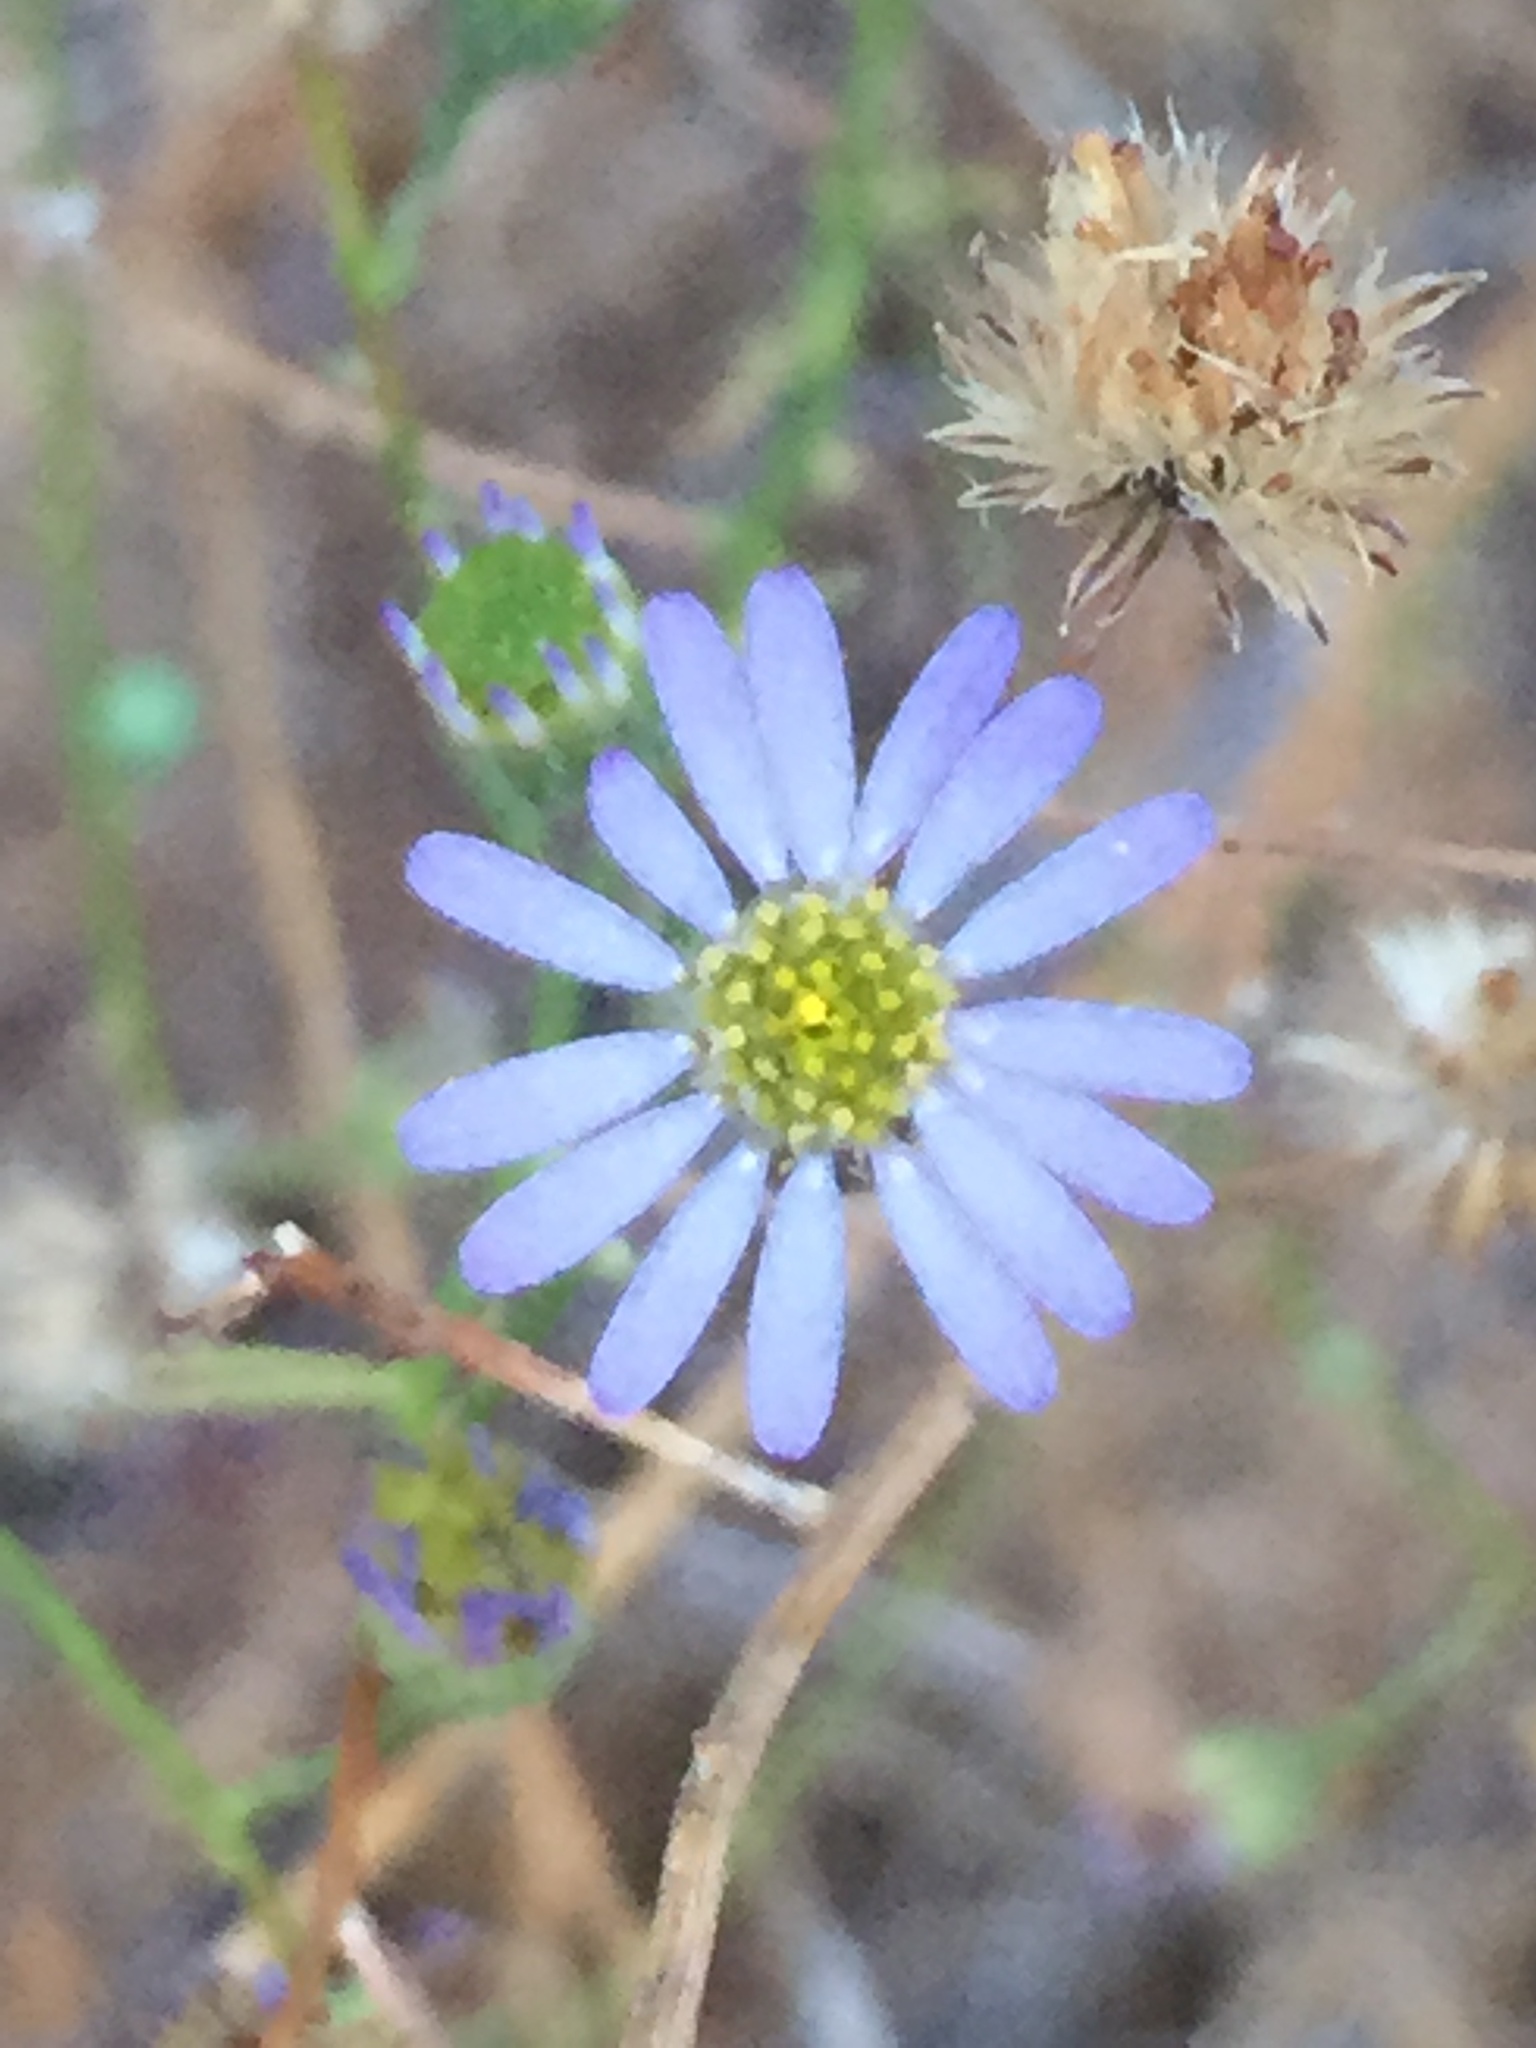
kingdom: Plantae
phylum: Tracheophyta
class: Magnoliopsida
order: Asterales
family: Asteraceae
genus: Corethrogyne
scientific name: Corethrogyne filaginifolia
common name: Sand-aster
